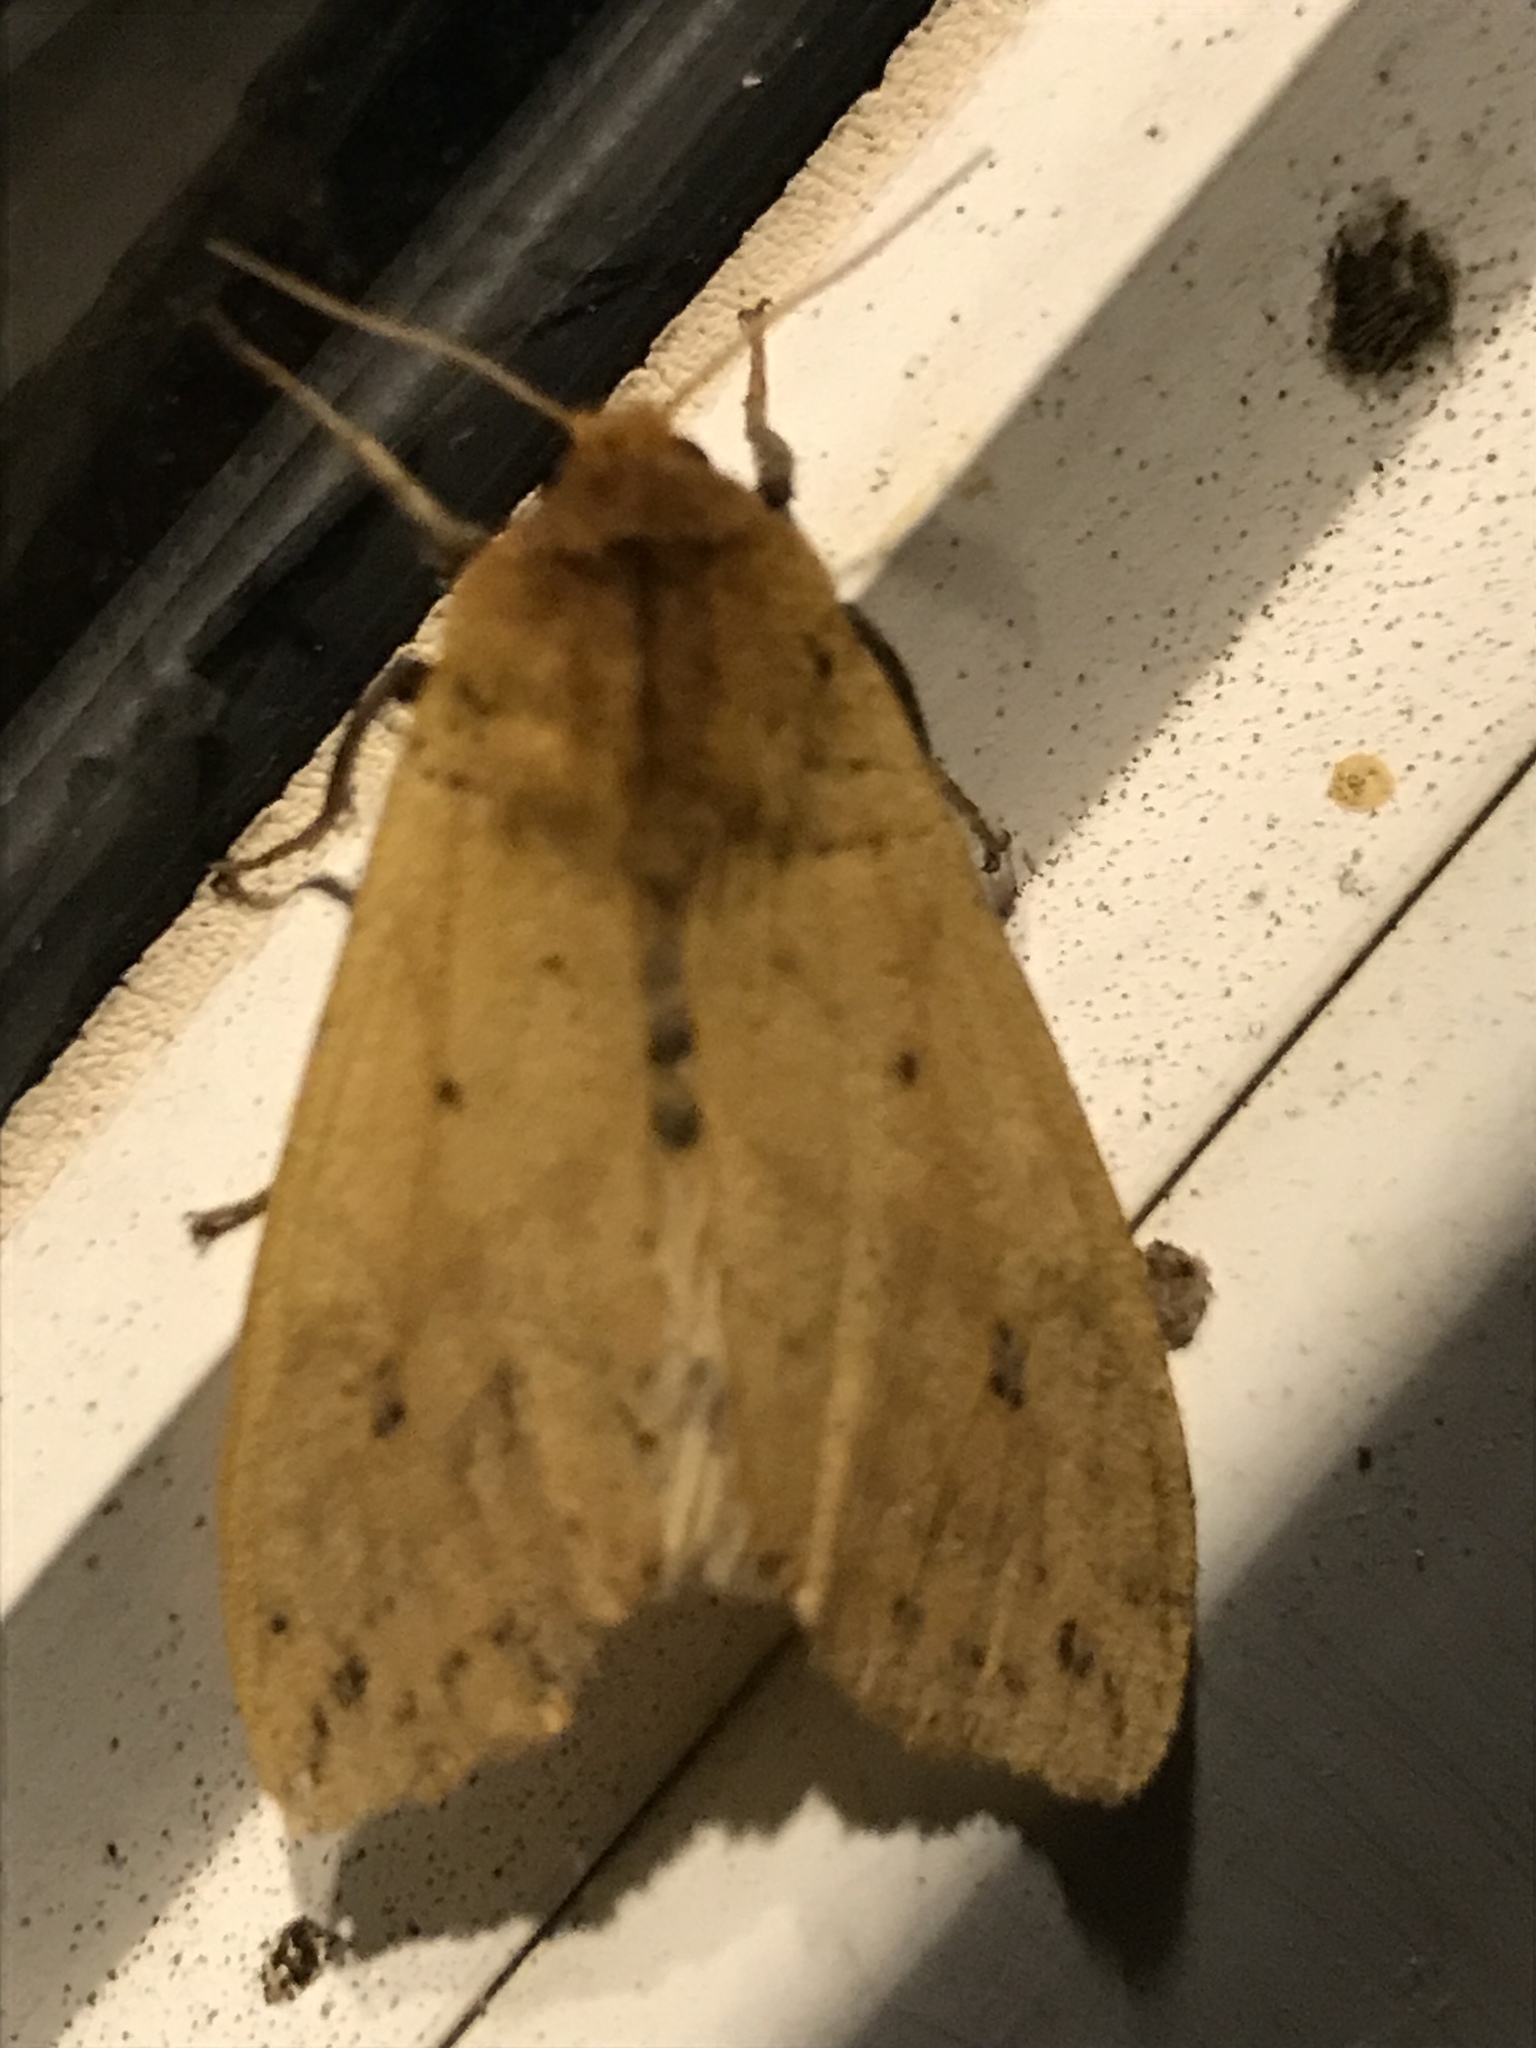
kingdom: Animalia
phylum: Arthropoda
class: Insecta
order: Lepidoptera
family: Erebidae
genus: Pyrrharctia
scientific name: Pyrrharctia isabella
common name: Isabella tiger moth
